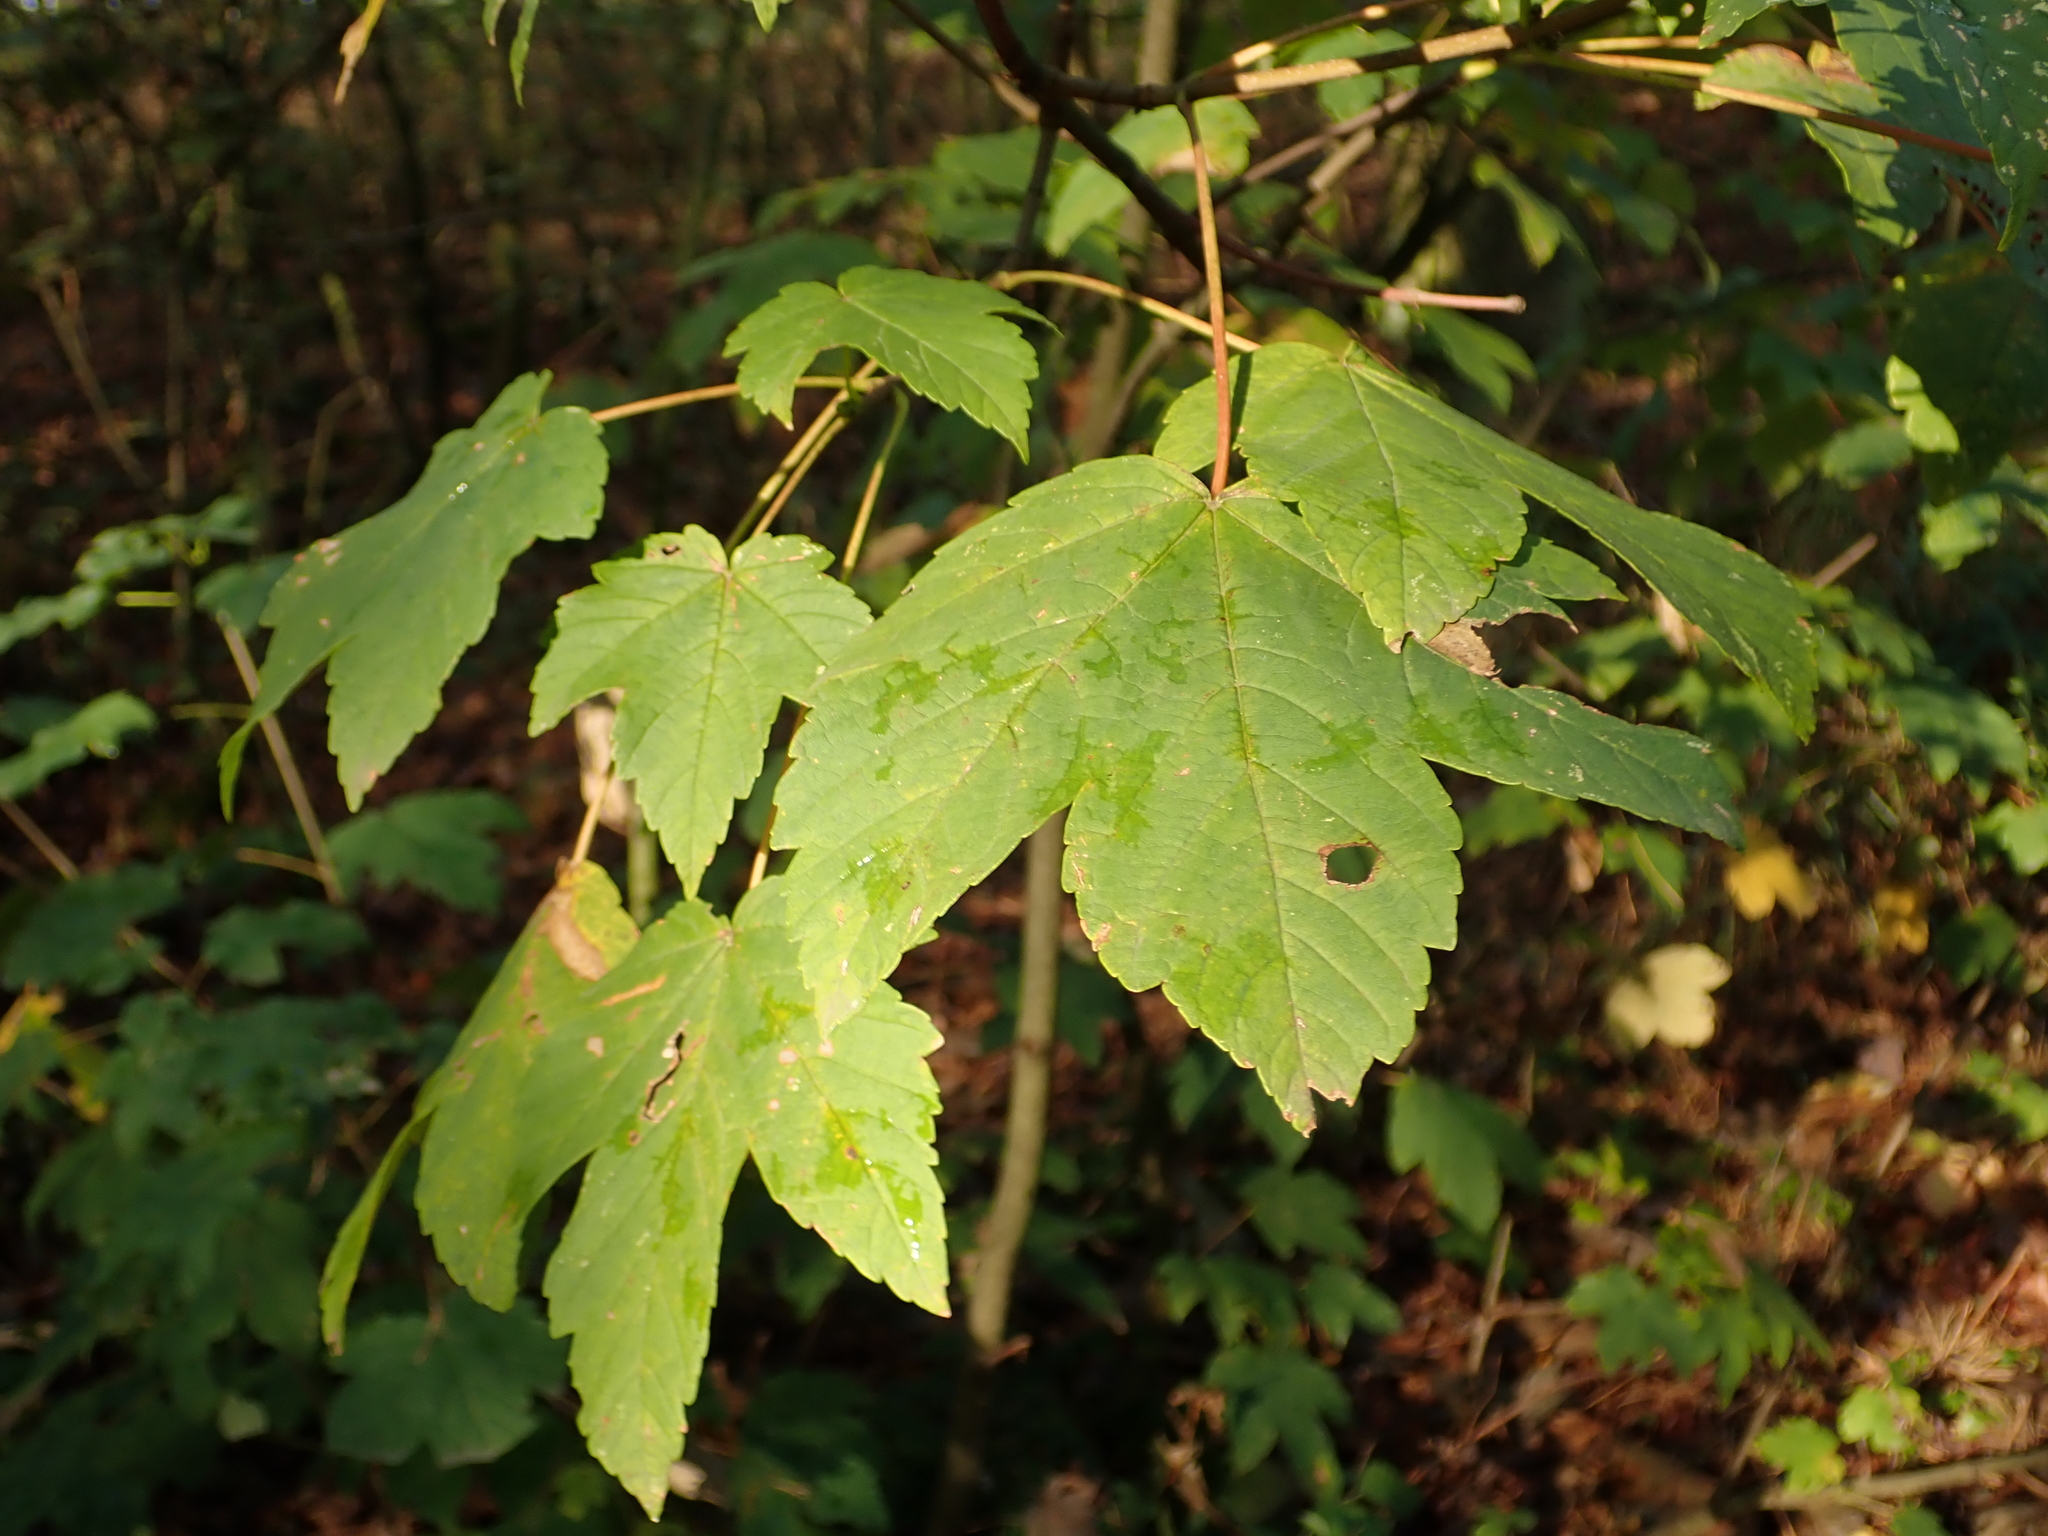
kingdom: Plantae
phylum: Tracheophyta
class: Magnoliopsida
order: Sapindales
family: Sapindaceae
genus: Acer
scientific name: Acer pseudoplatanus
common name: Sycamore
